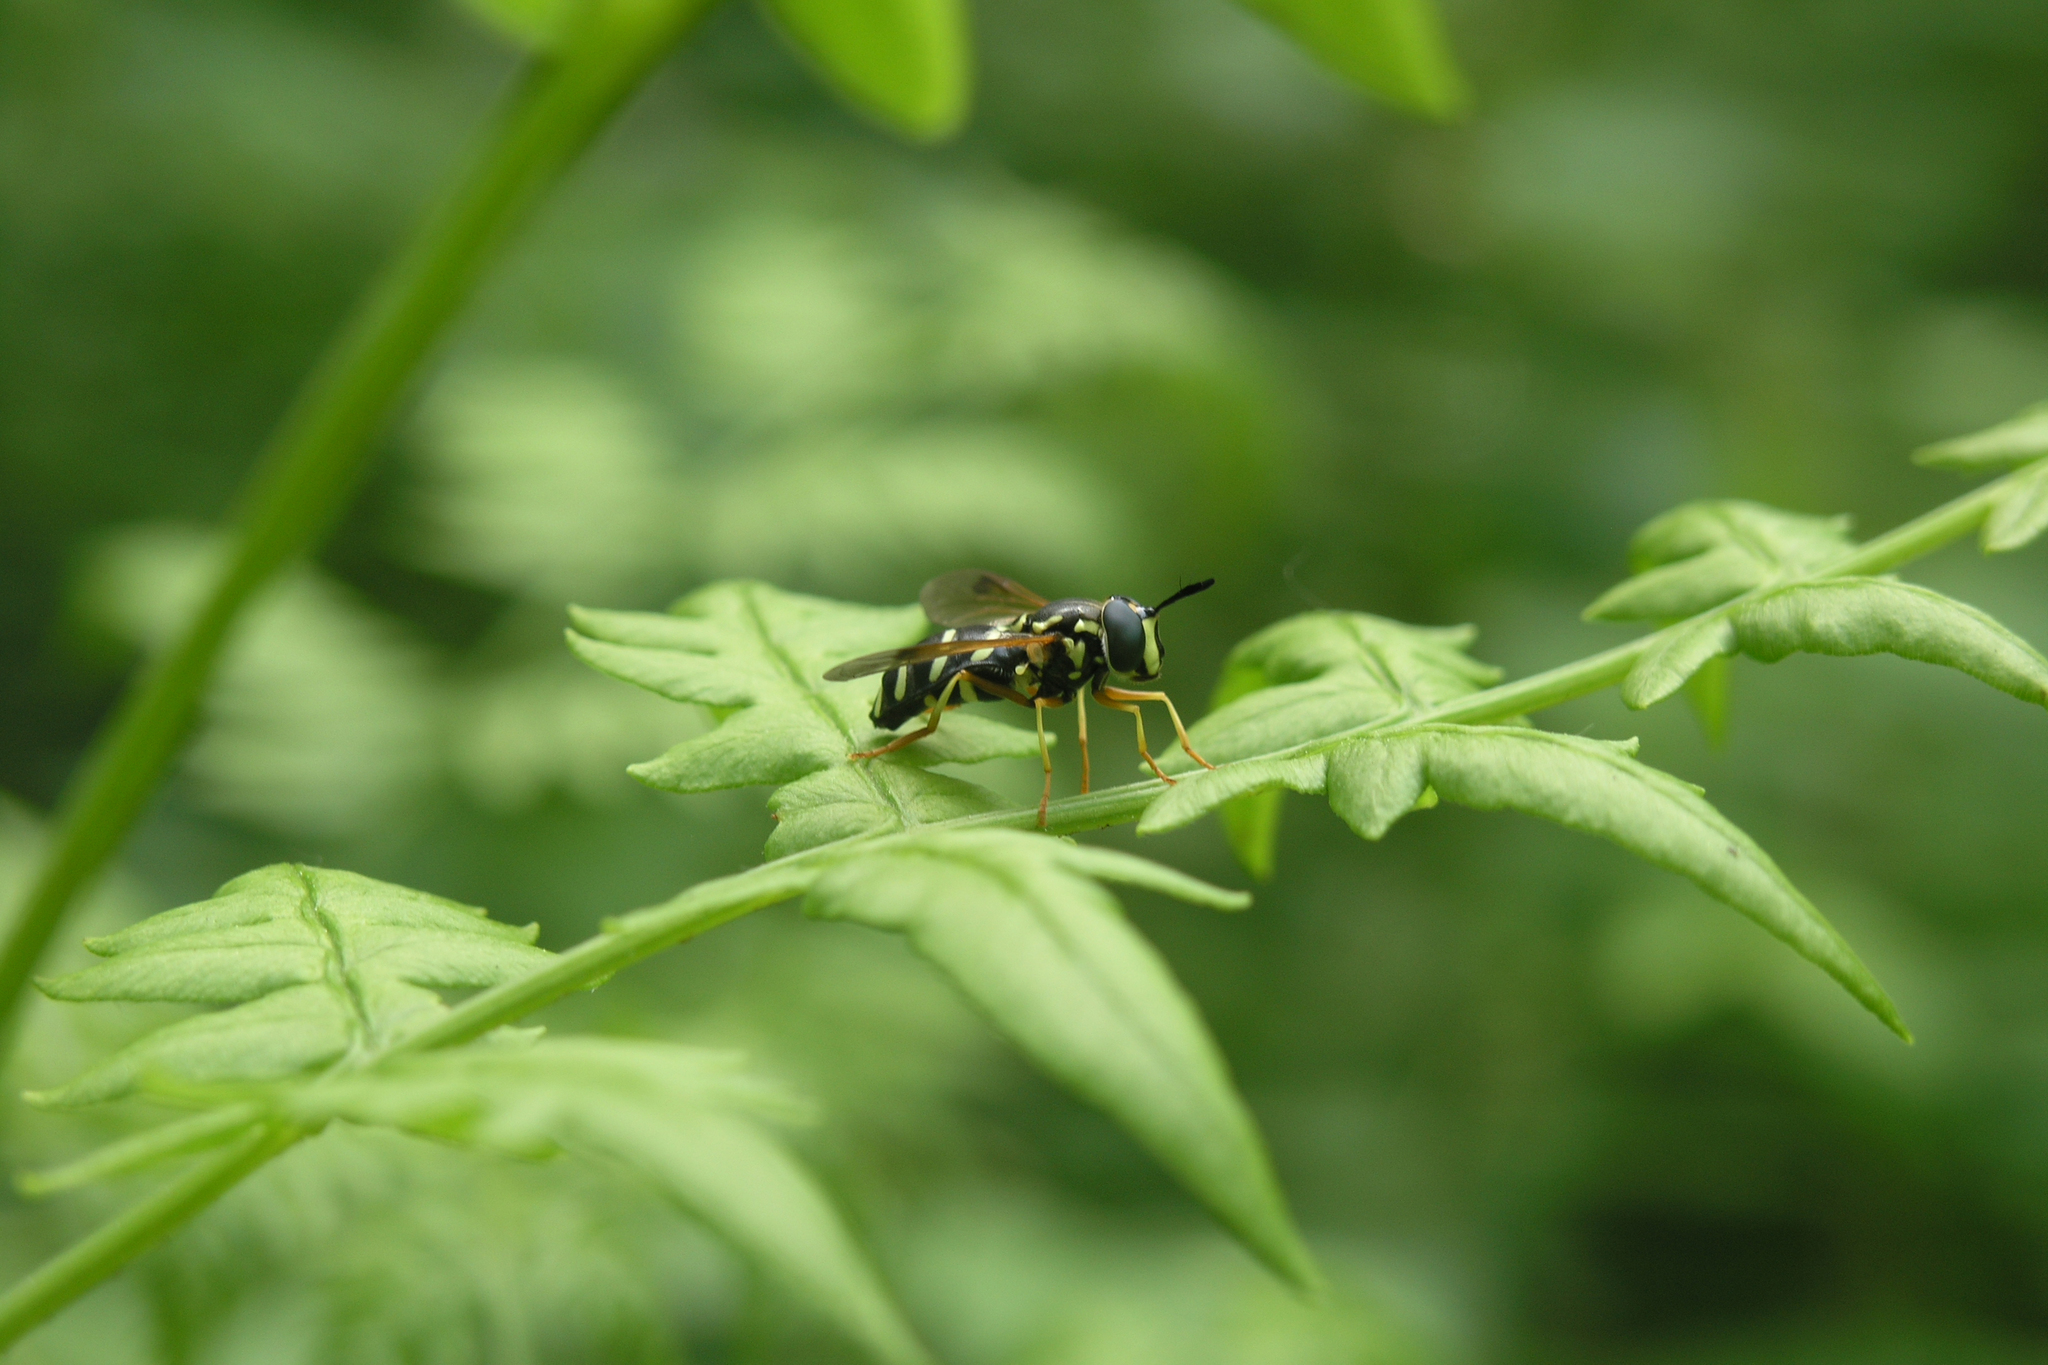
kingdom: Plantae
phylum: Tracheophyta
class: Polypodiopsida
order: Polypodiales
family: Dennstaedtiaceae
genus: Pteridium
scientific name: Pteridium aquilinum
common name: Bracken
